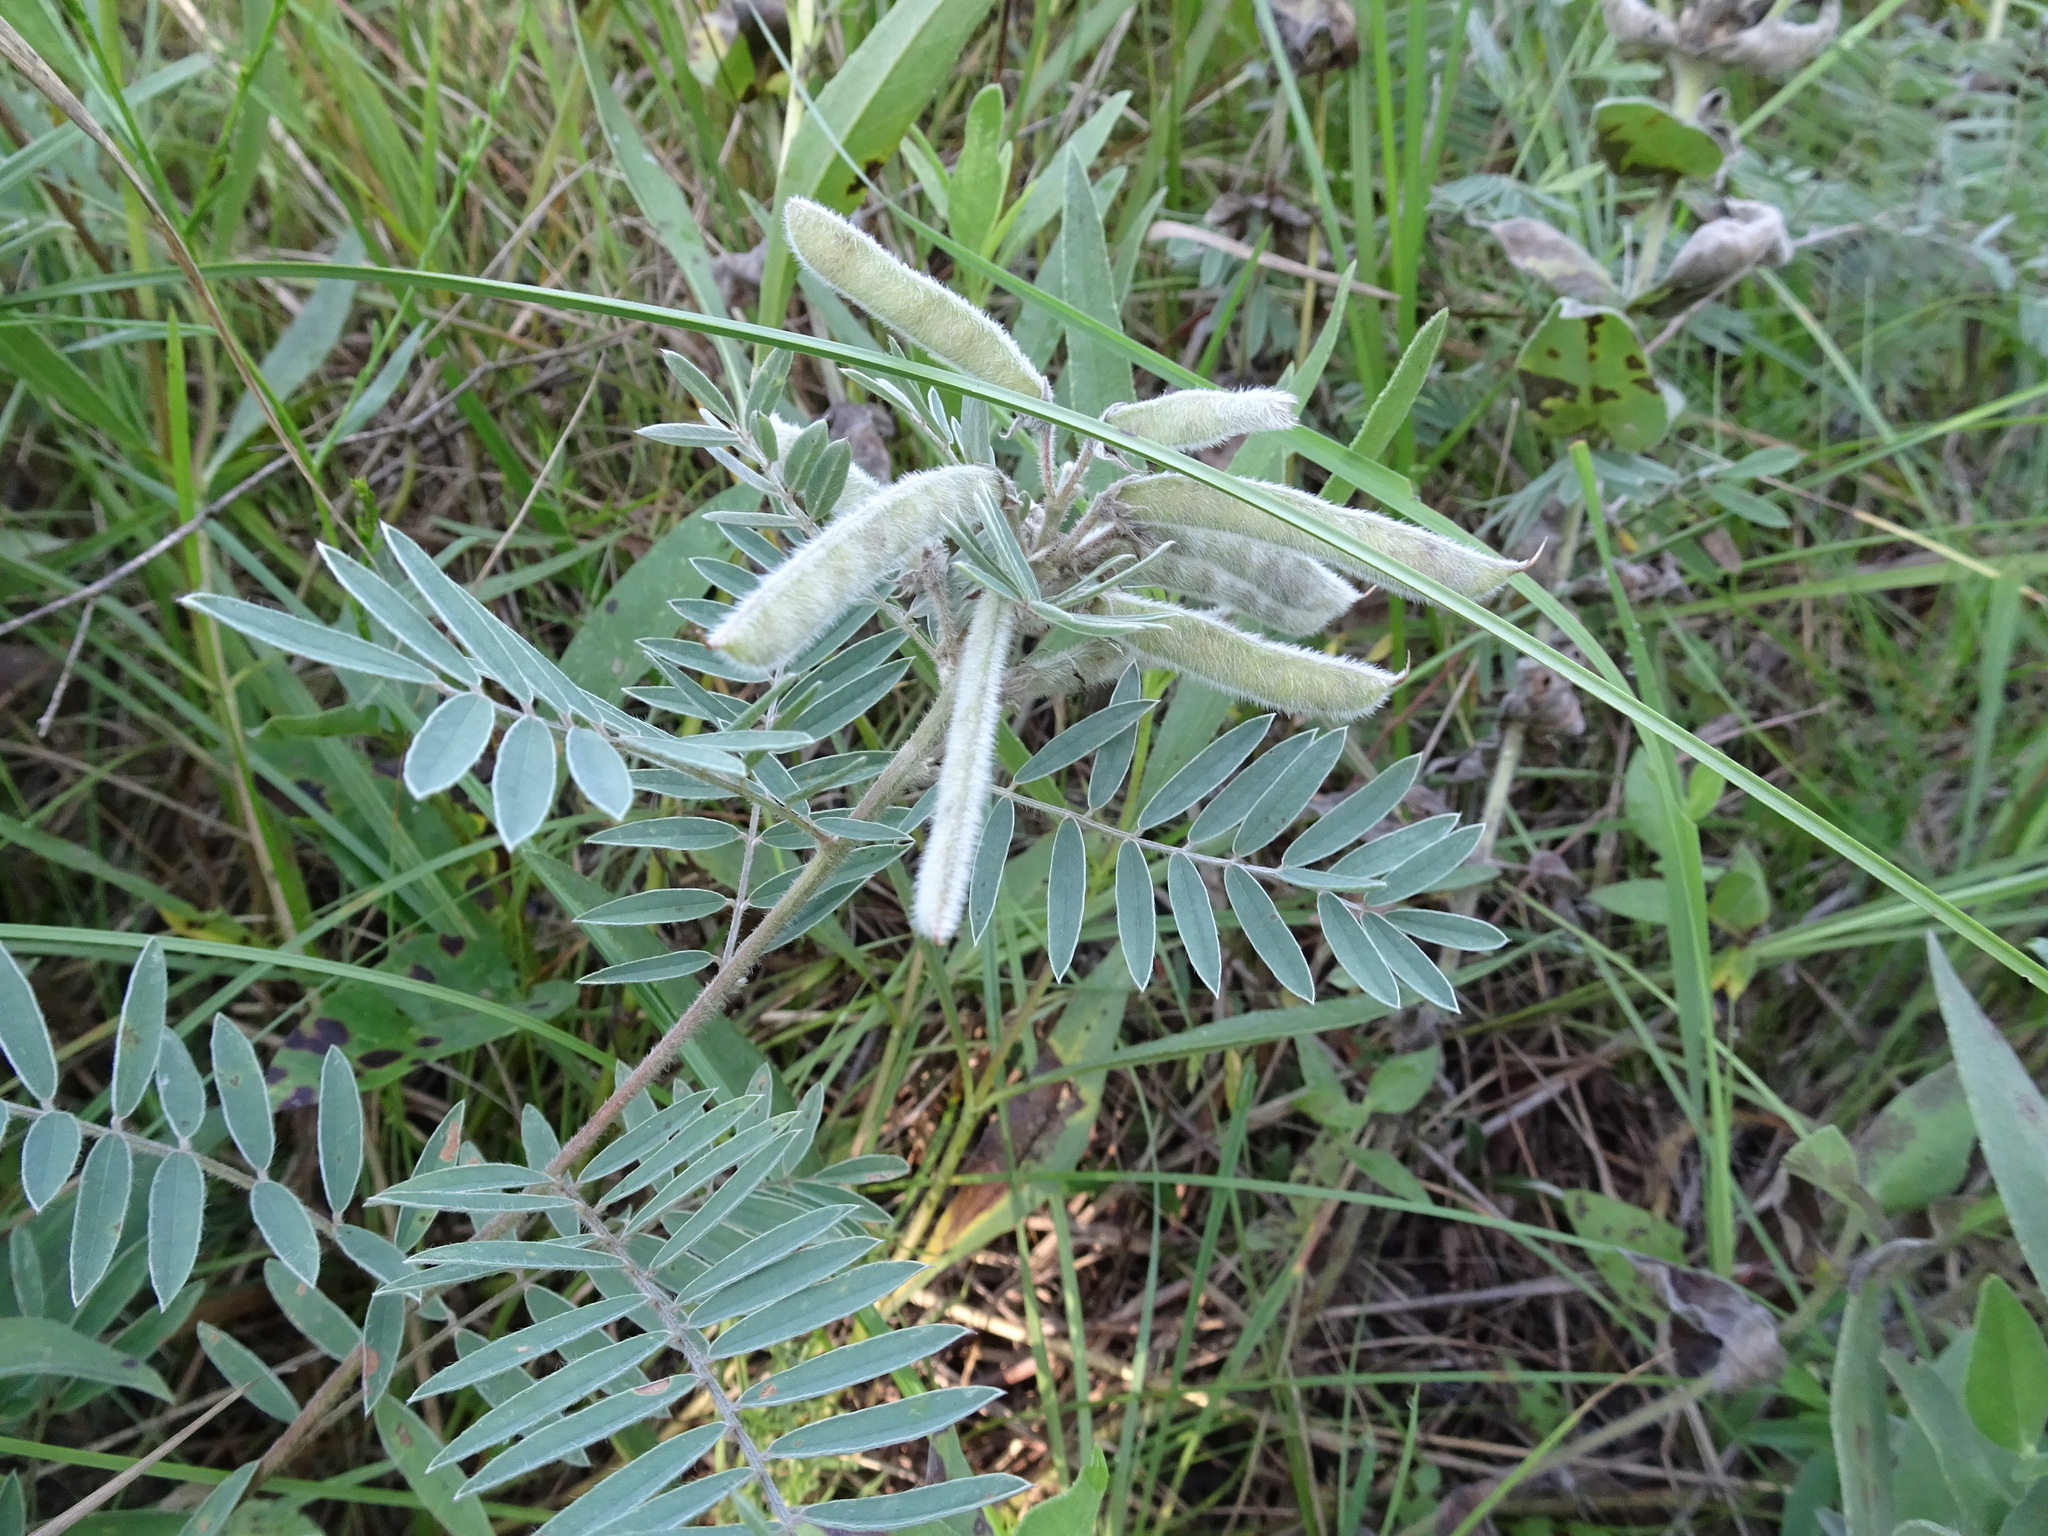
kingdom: Plantae
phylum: Tracheophyta
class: Magnoliopsida
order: Fabales
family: Fabaceae
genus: Tephrosia
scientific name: Tephrosia virginiana
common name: Rabbit-pea
